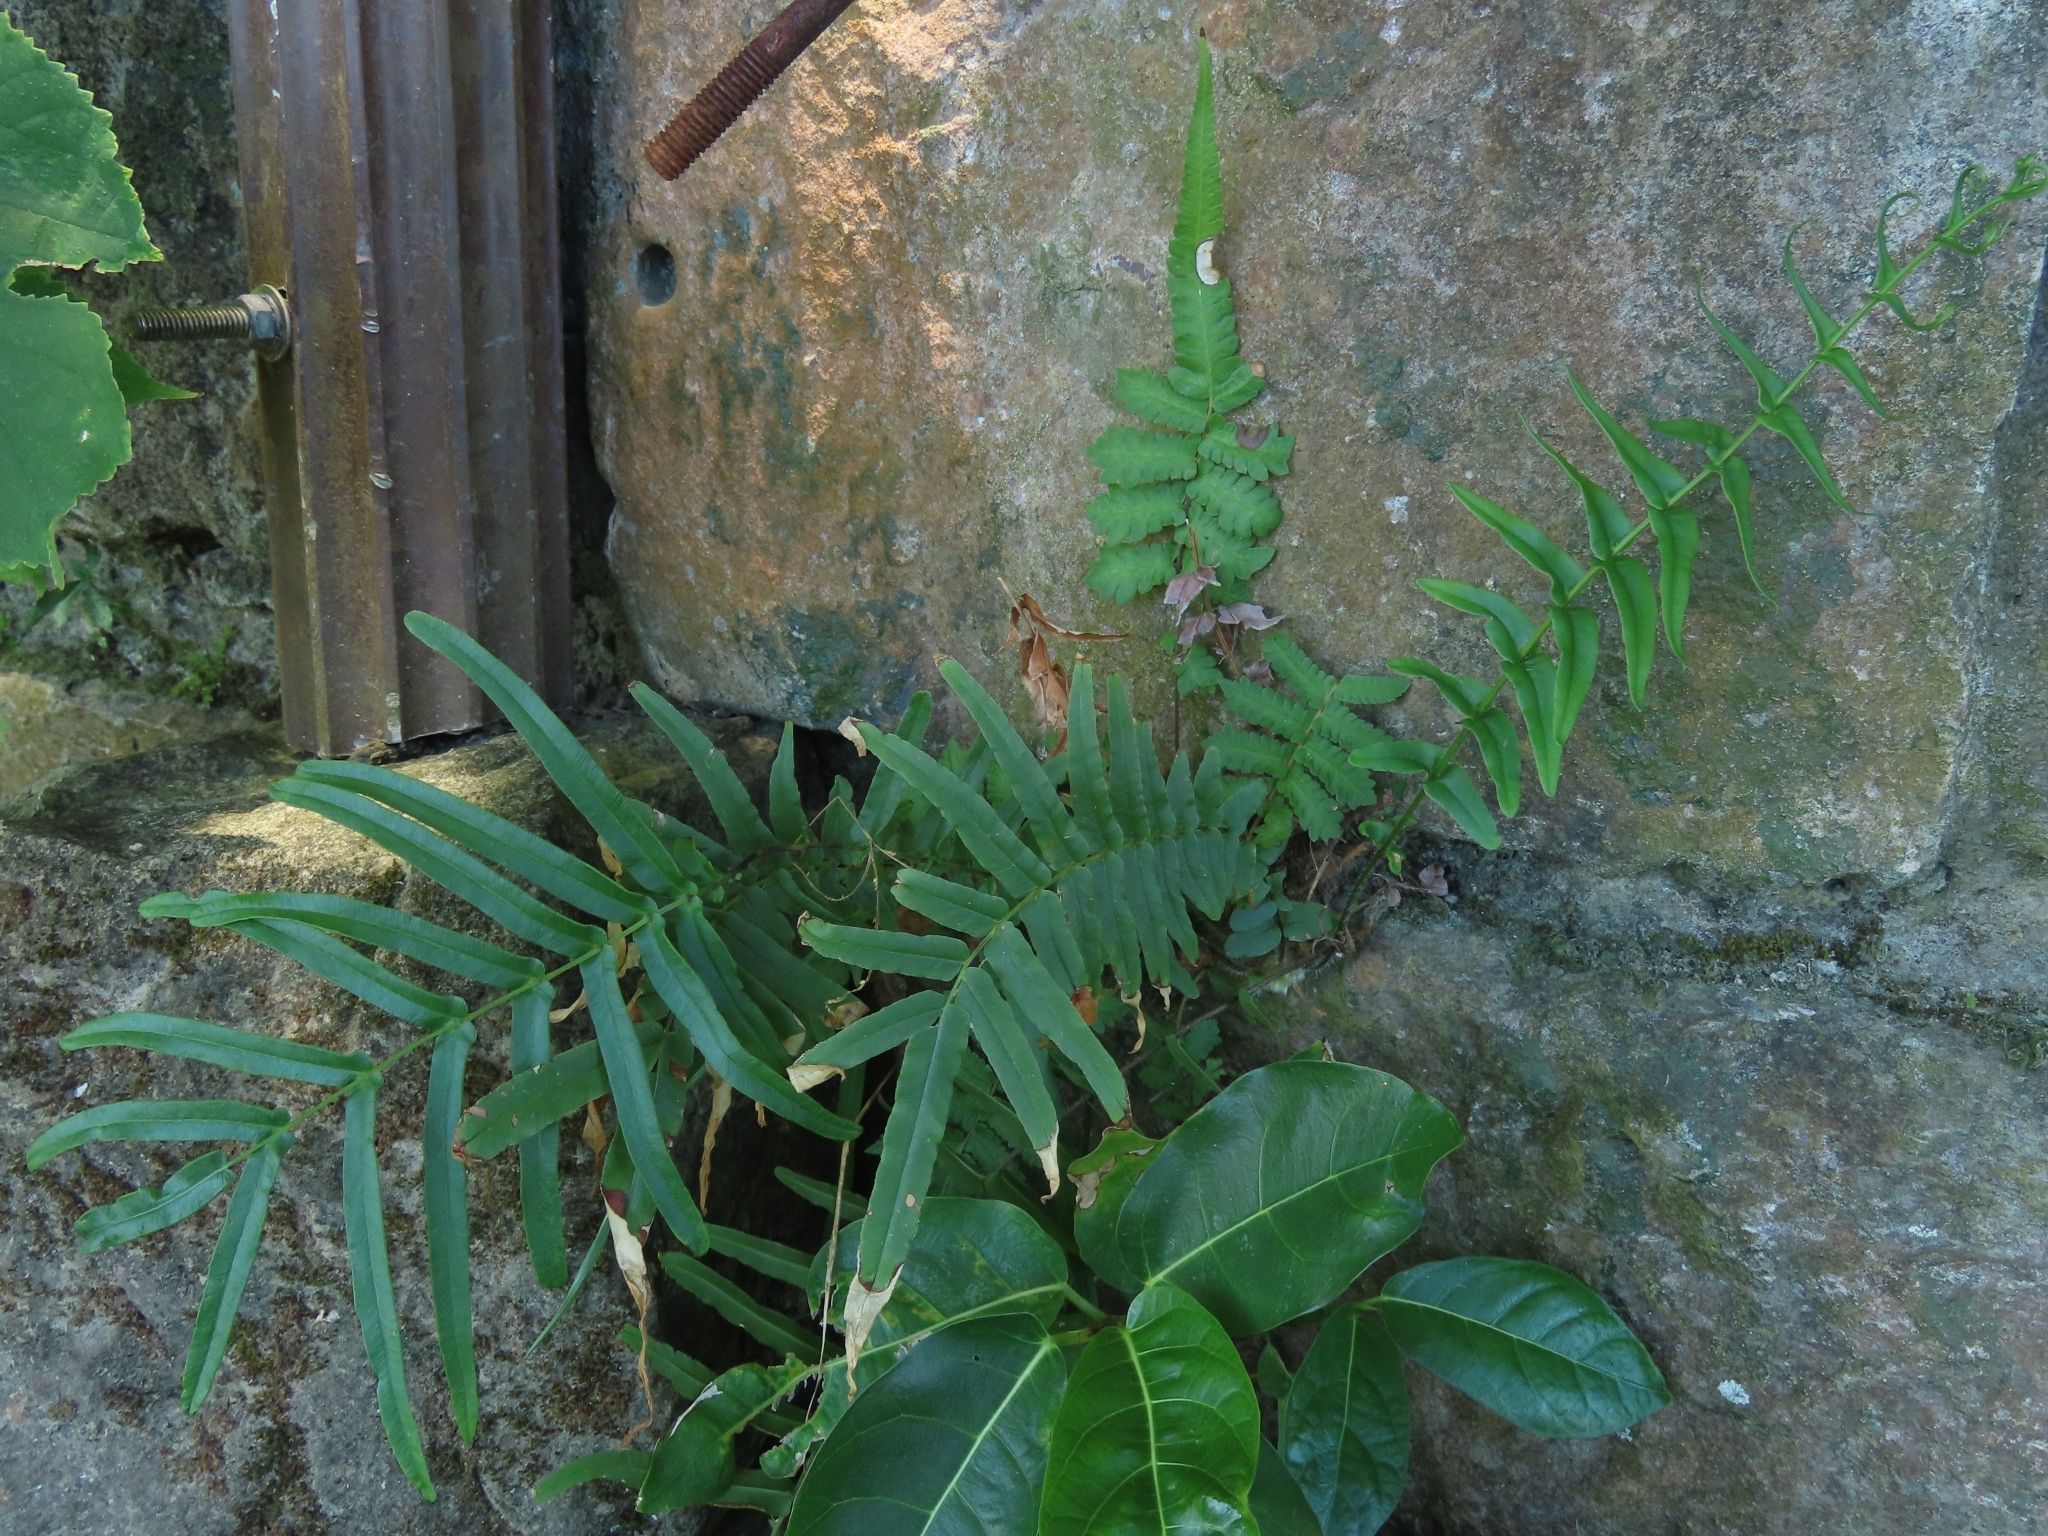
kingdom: Plantae
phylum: Tracheophyta
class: Polypodiopsida
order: Polypodiales
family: Pteridaceae
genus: Pteris
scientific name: Pteris vittata
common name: Ladder brake
